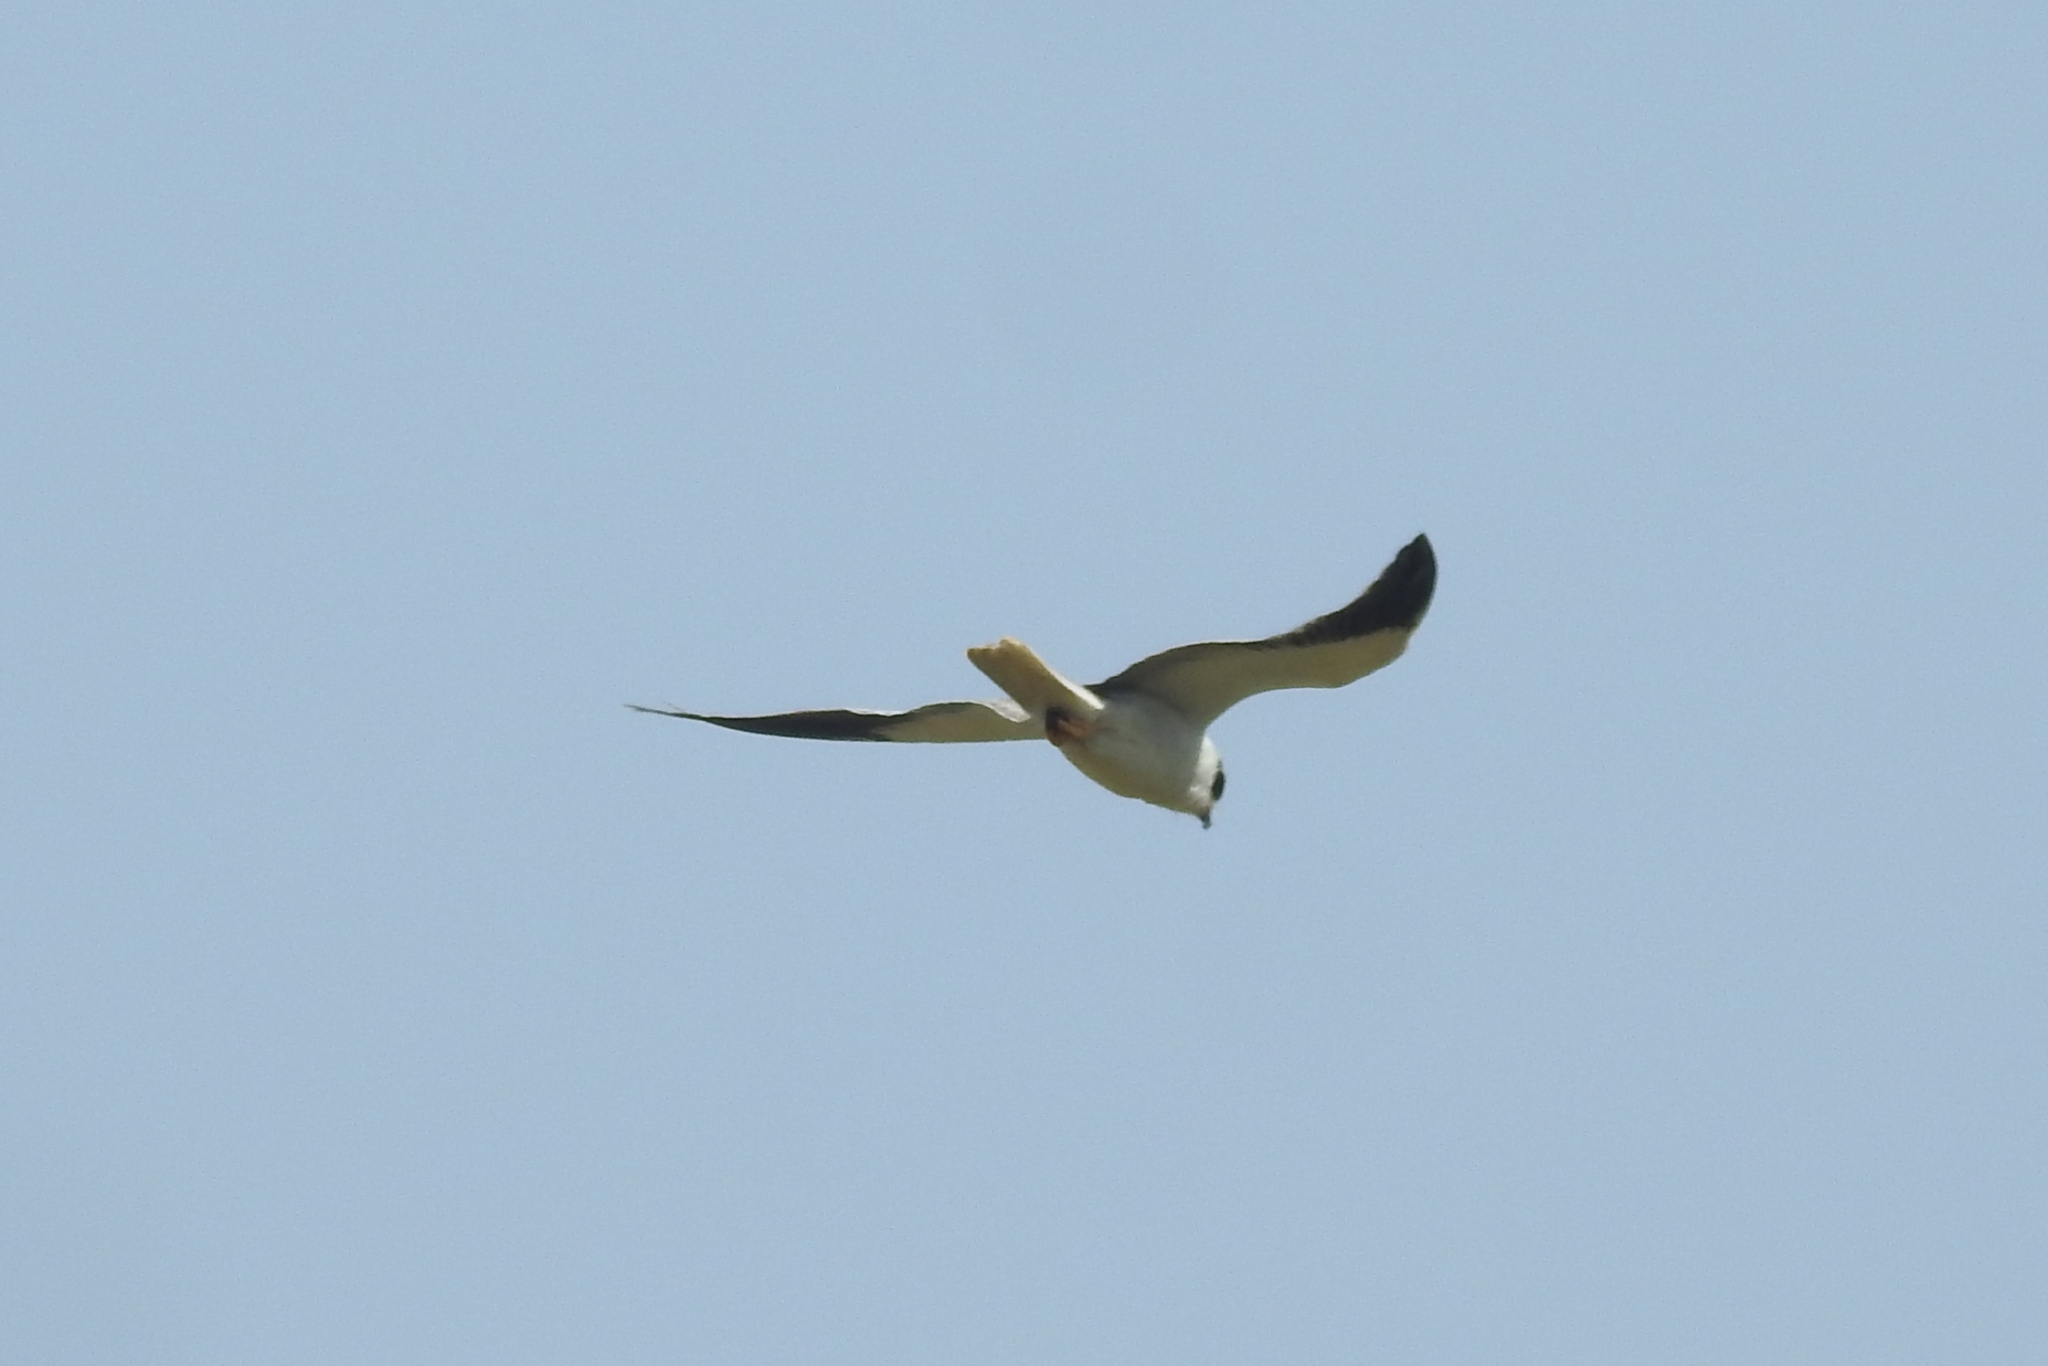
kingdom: Animalia
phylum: Chordata
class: Aves
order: Accipitriformes
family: Accipitridae
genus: Elanus
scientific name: Elanus caeruleus
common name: Black-winged kite
